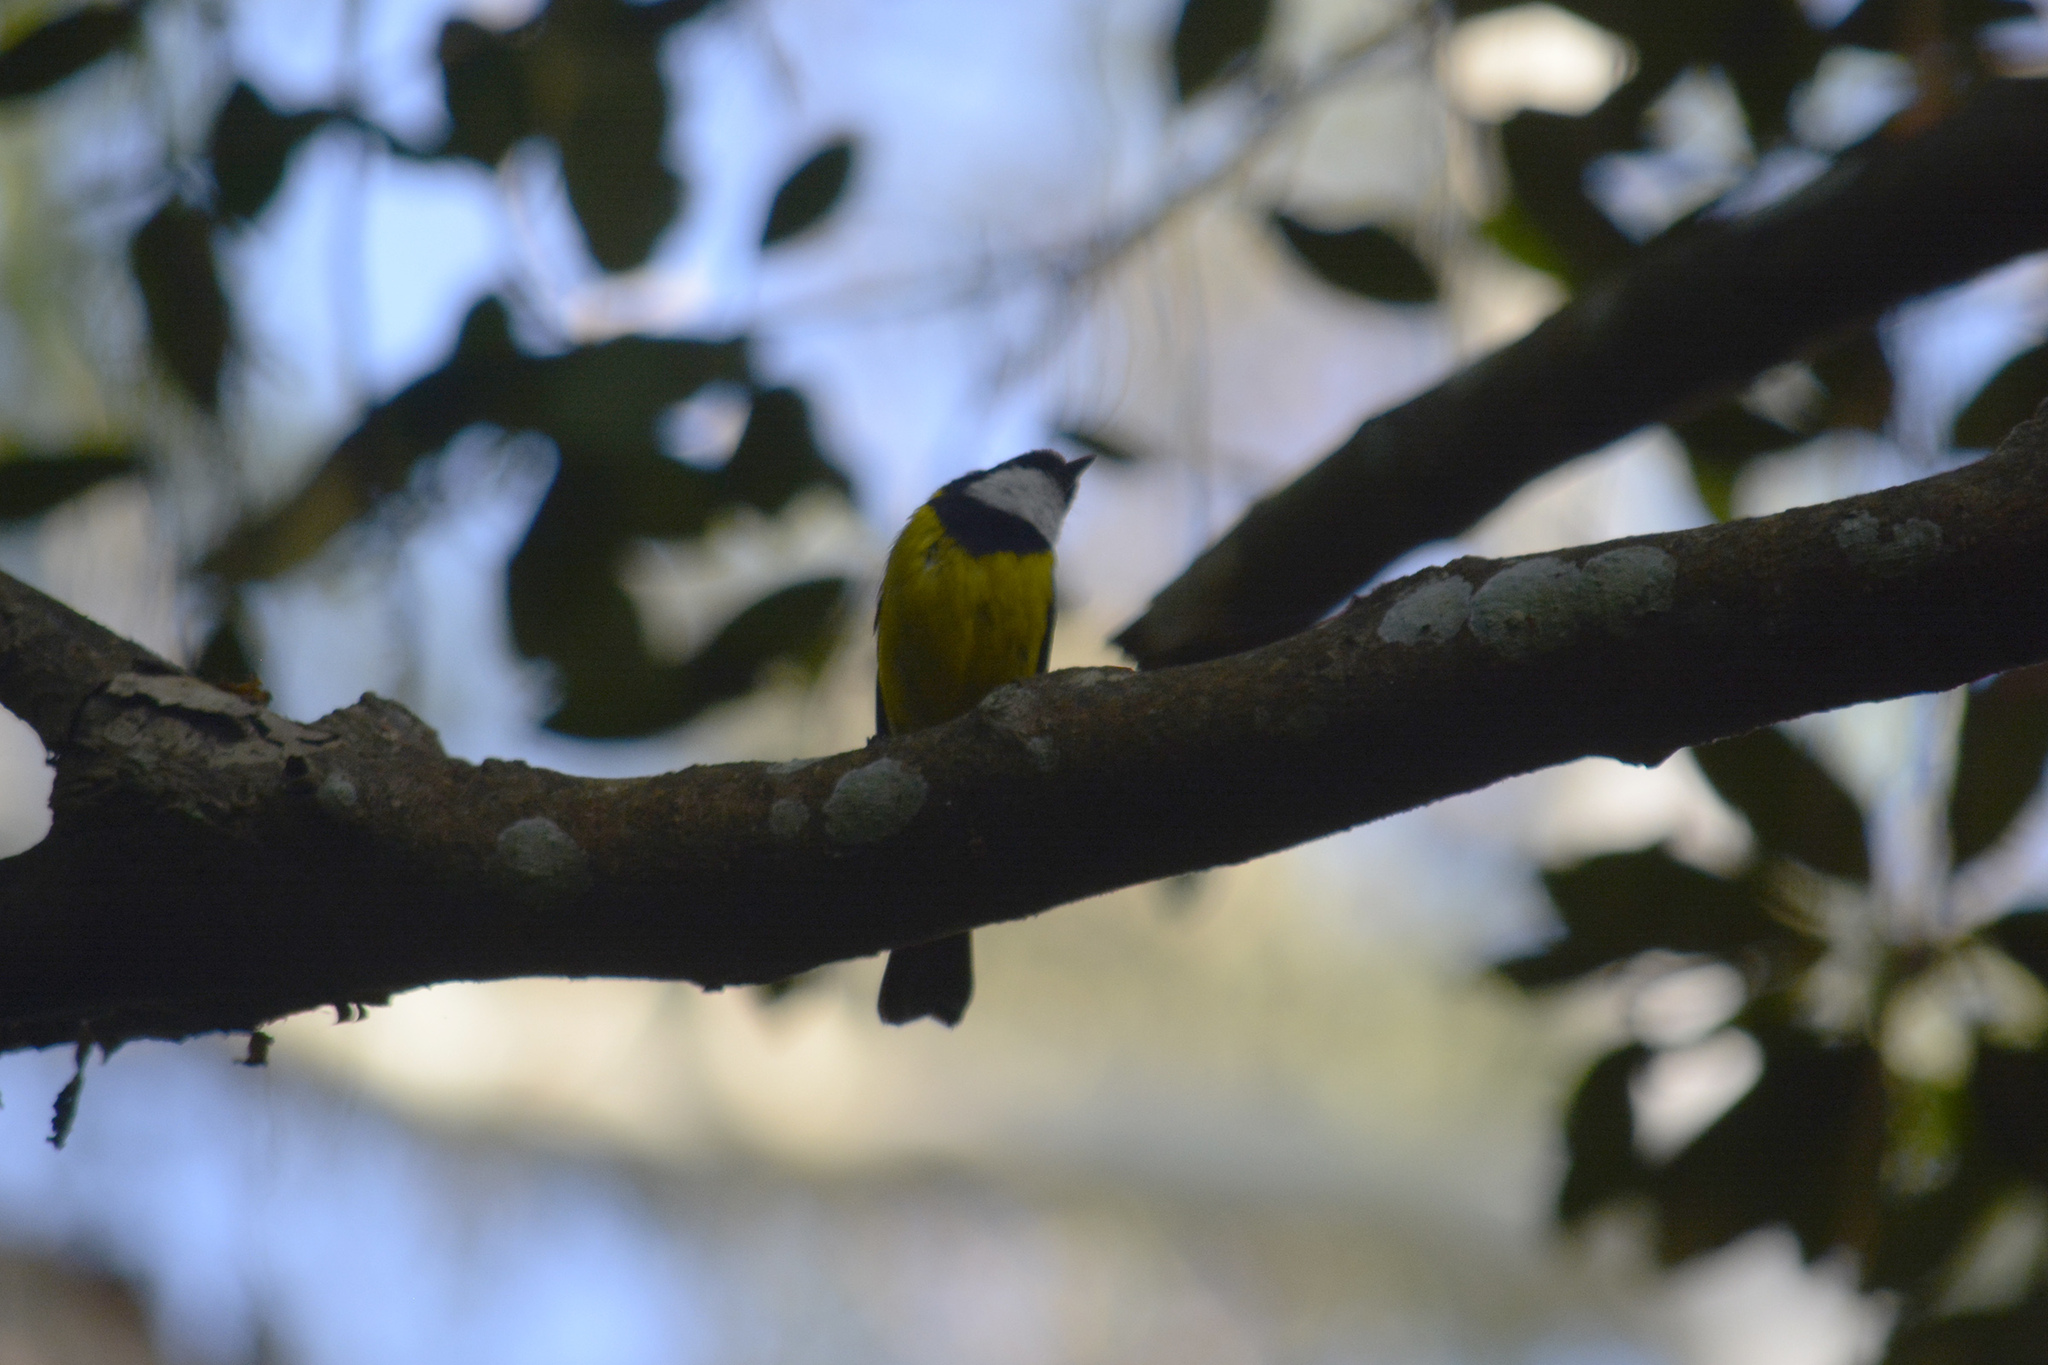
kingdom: Animalia
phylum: Chordata
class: Aves
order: Passeriformes
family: Pachycephalidae
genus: Pachycephala
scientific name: Pachycephala pectoralis
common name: Australian golden whistler
